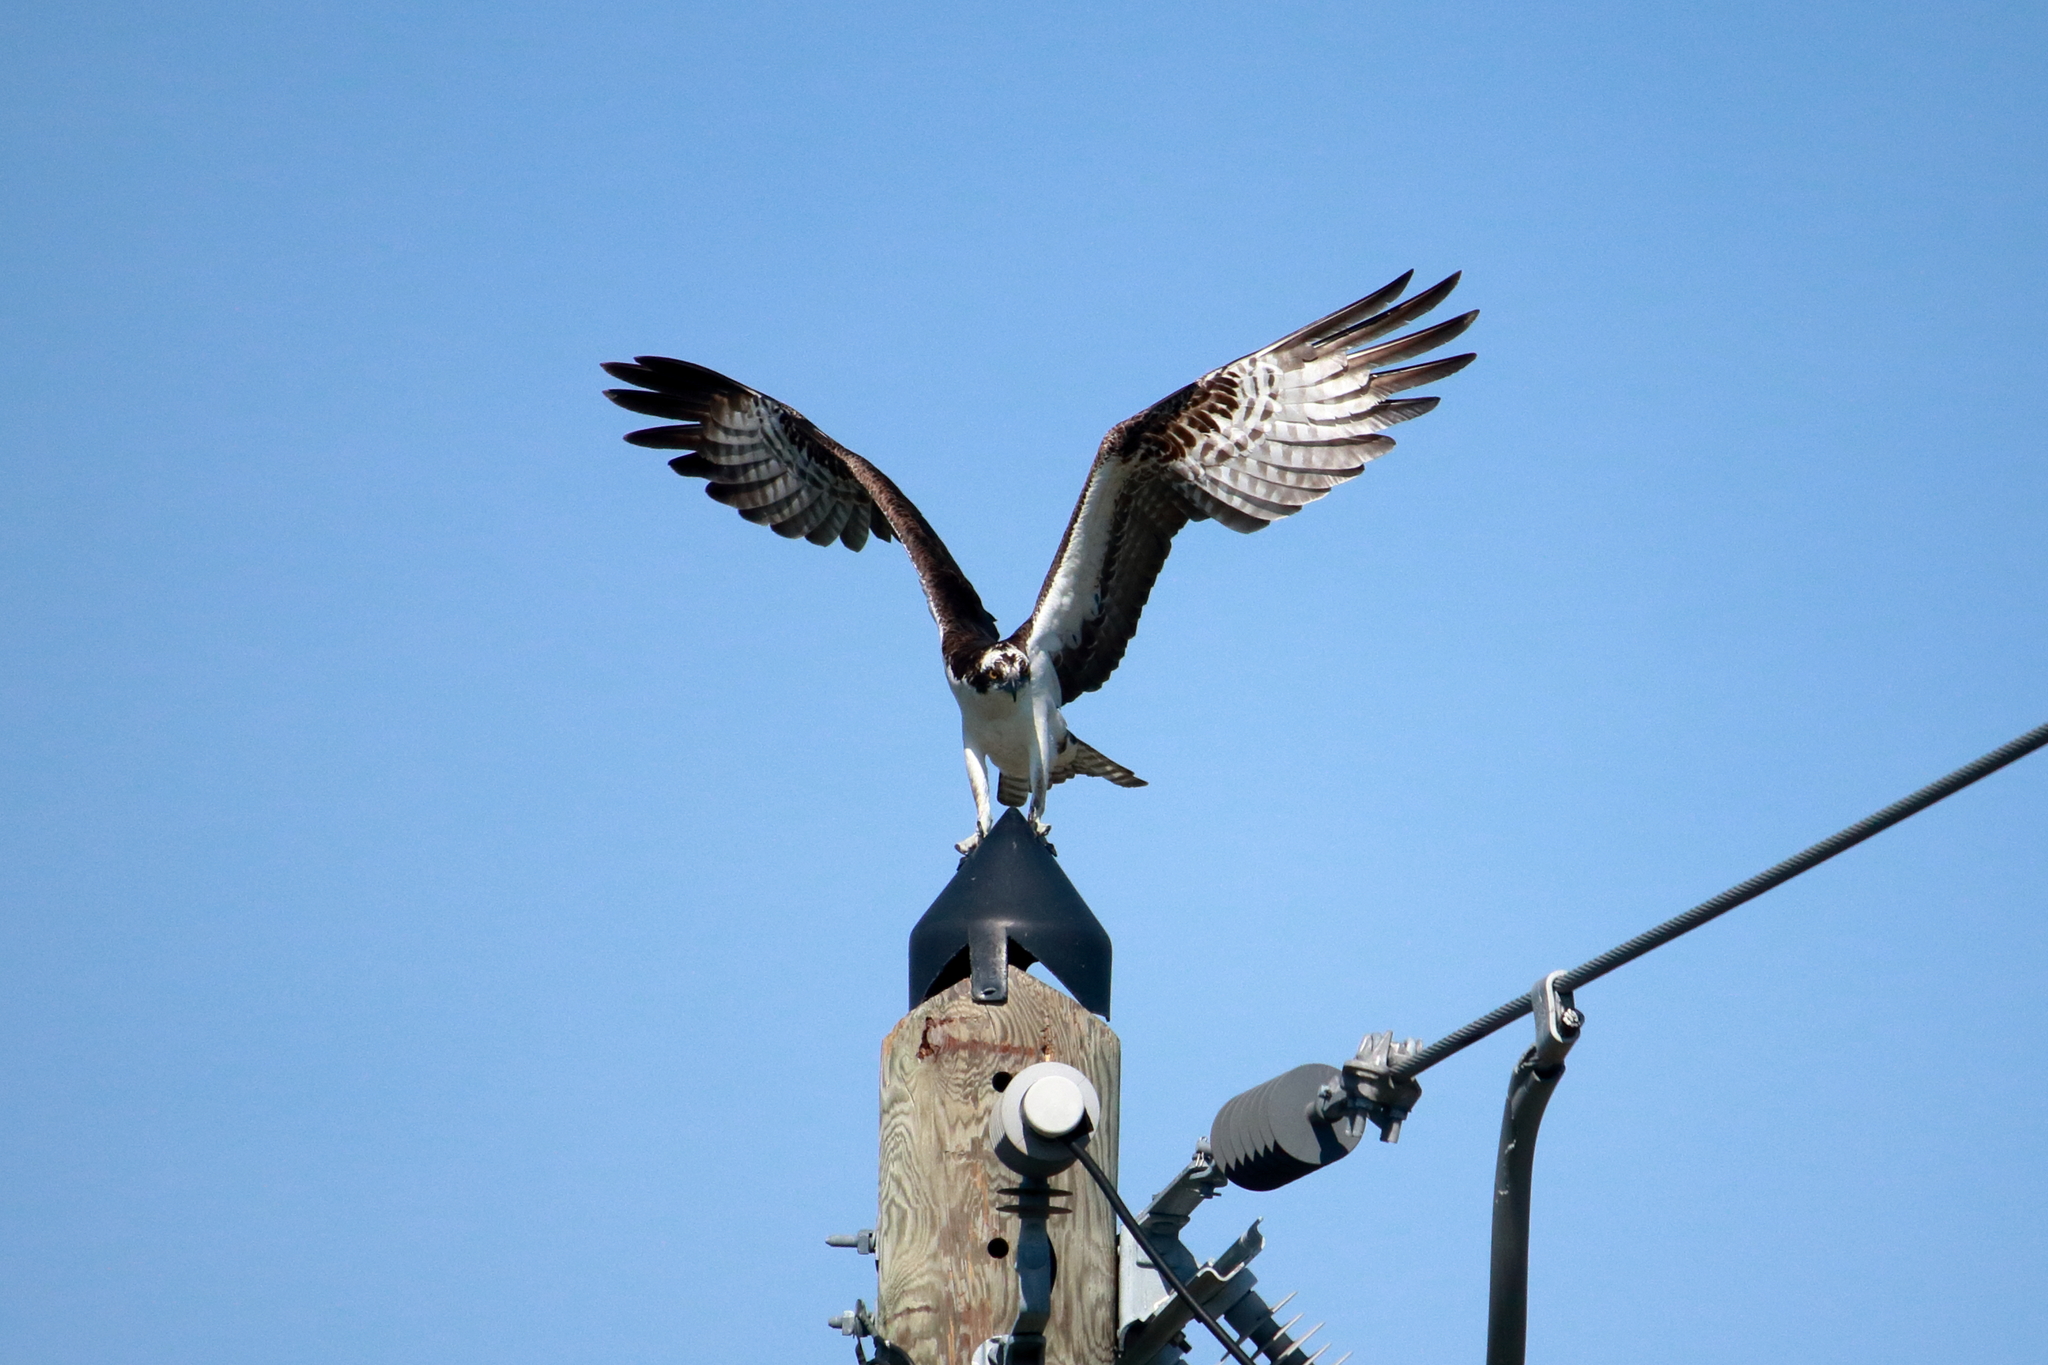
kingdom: Animalia
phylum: Chordata
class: Aves
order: Accipitriformes
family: Pandionidae
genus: Pandion
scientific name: Pandion haliaetus
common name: Osprey
